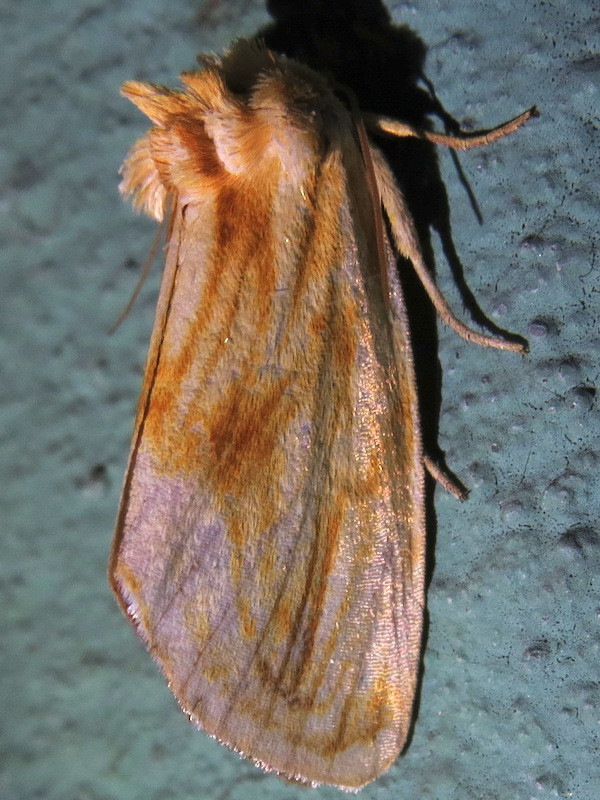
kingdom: Animalia
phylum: Arthropoda
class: Insecta
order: Lepidoptera
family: Noctuidae
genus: Cirrhophanus
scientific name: Cirrhophanus triangulifer
